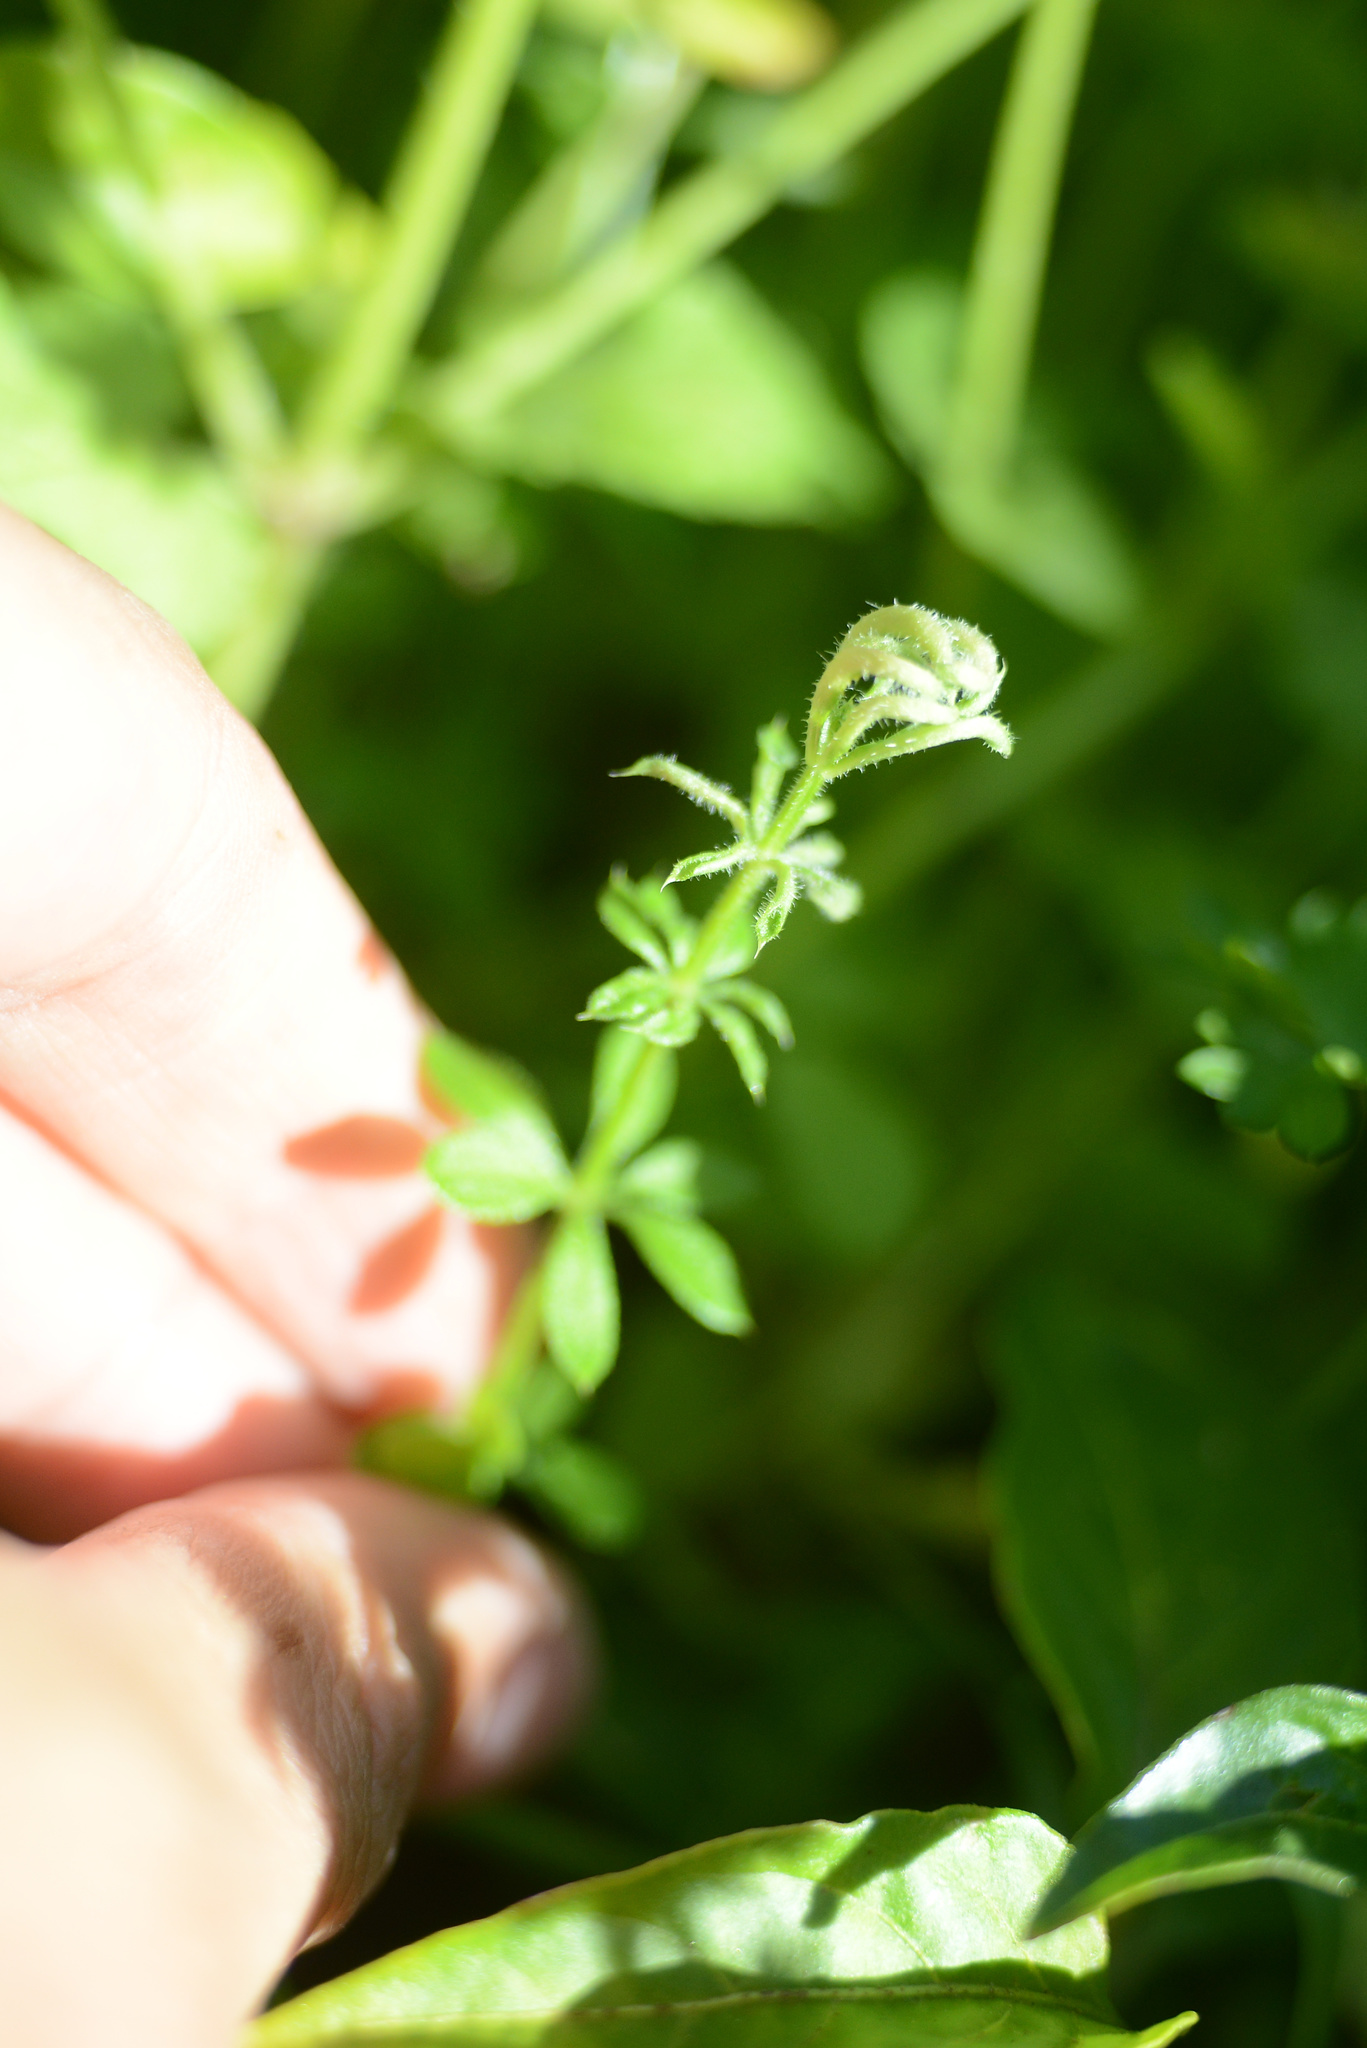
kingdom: Animalia
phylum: Arthropoda
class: Arachnida
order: Trombidiformes
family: Eriophyidae
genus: Cecidophyes
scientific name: Cecidophyes rouhollahi
